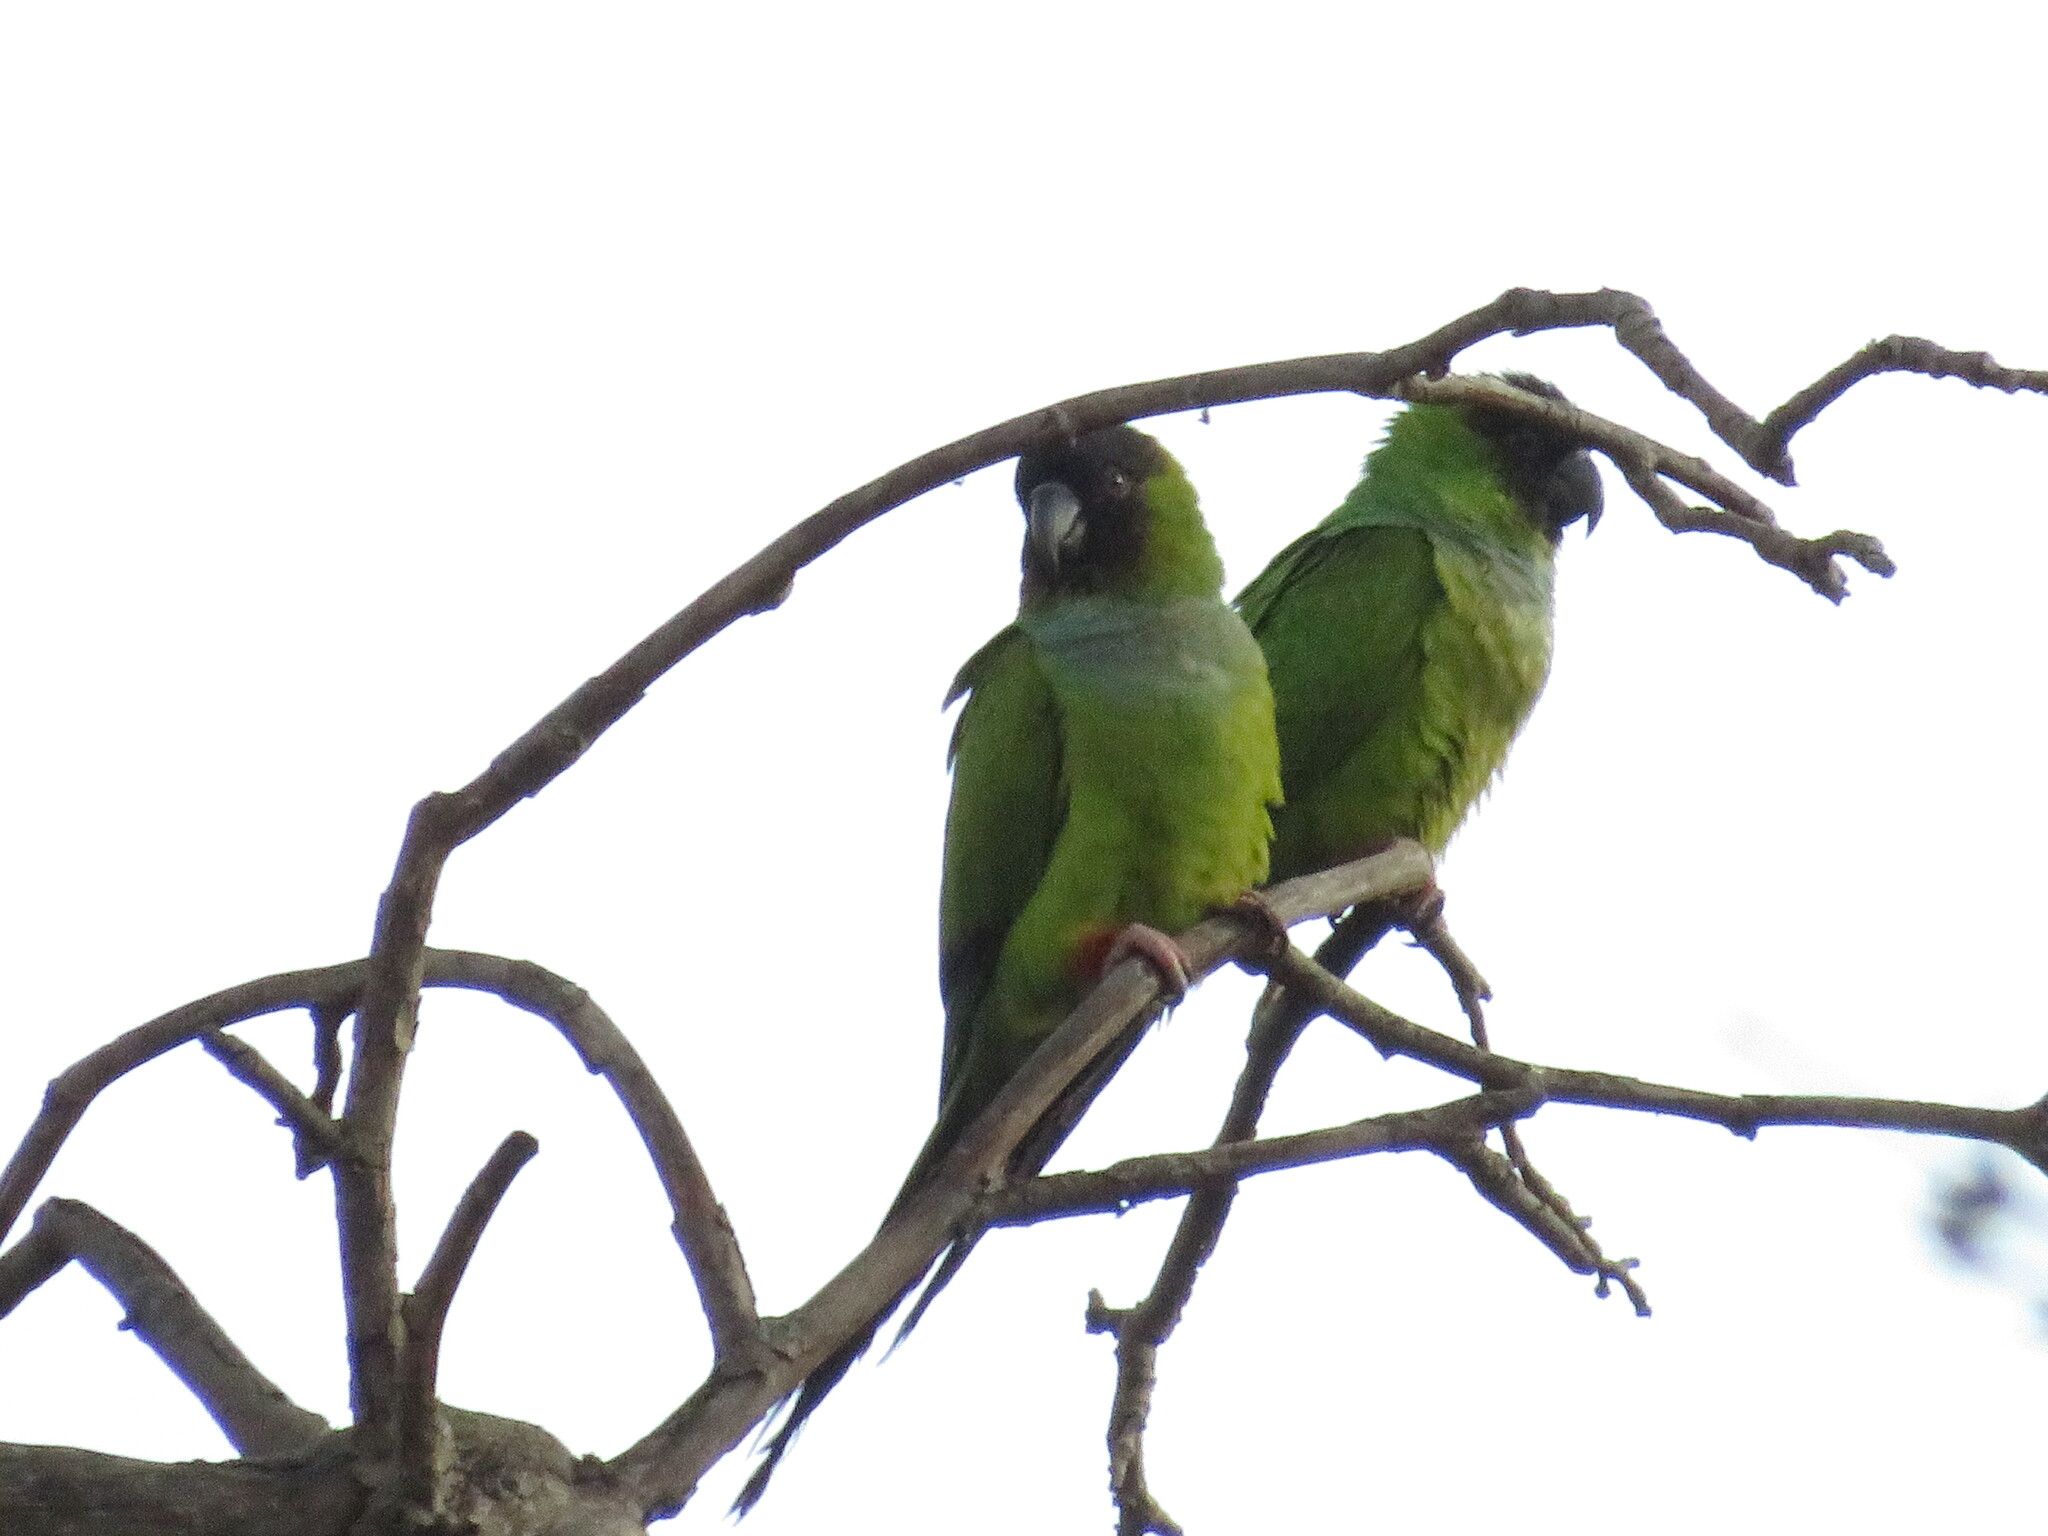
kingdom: Animalia
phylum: Chordata
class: Aves
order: Psittaciformes
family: Psittacidae
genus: Nandayus
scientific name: Nandayus nenday
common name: Nanday parakeet
